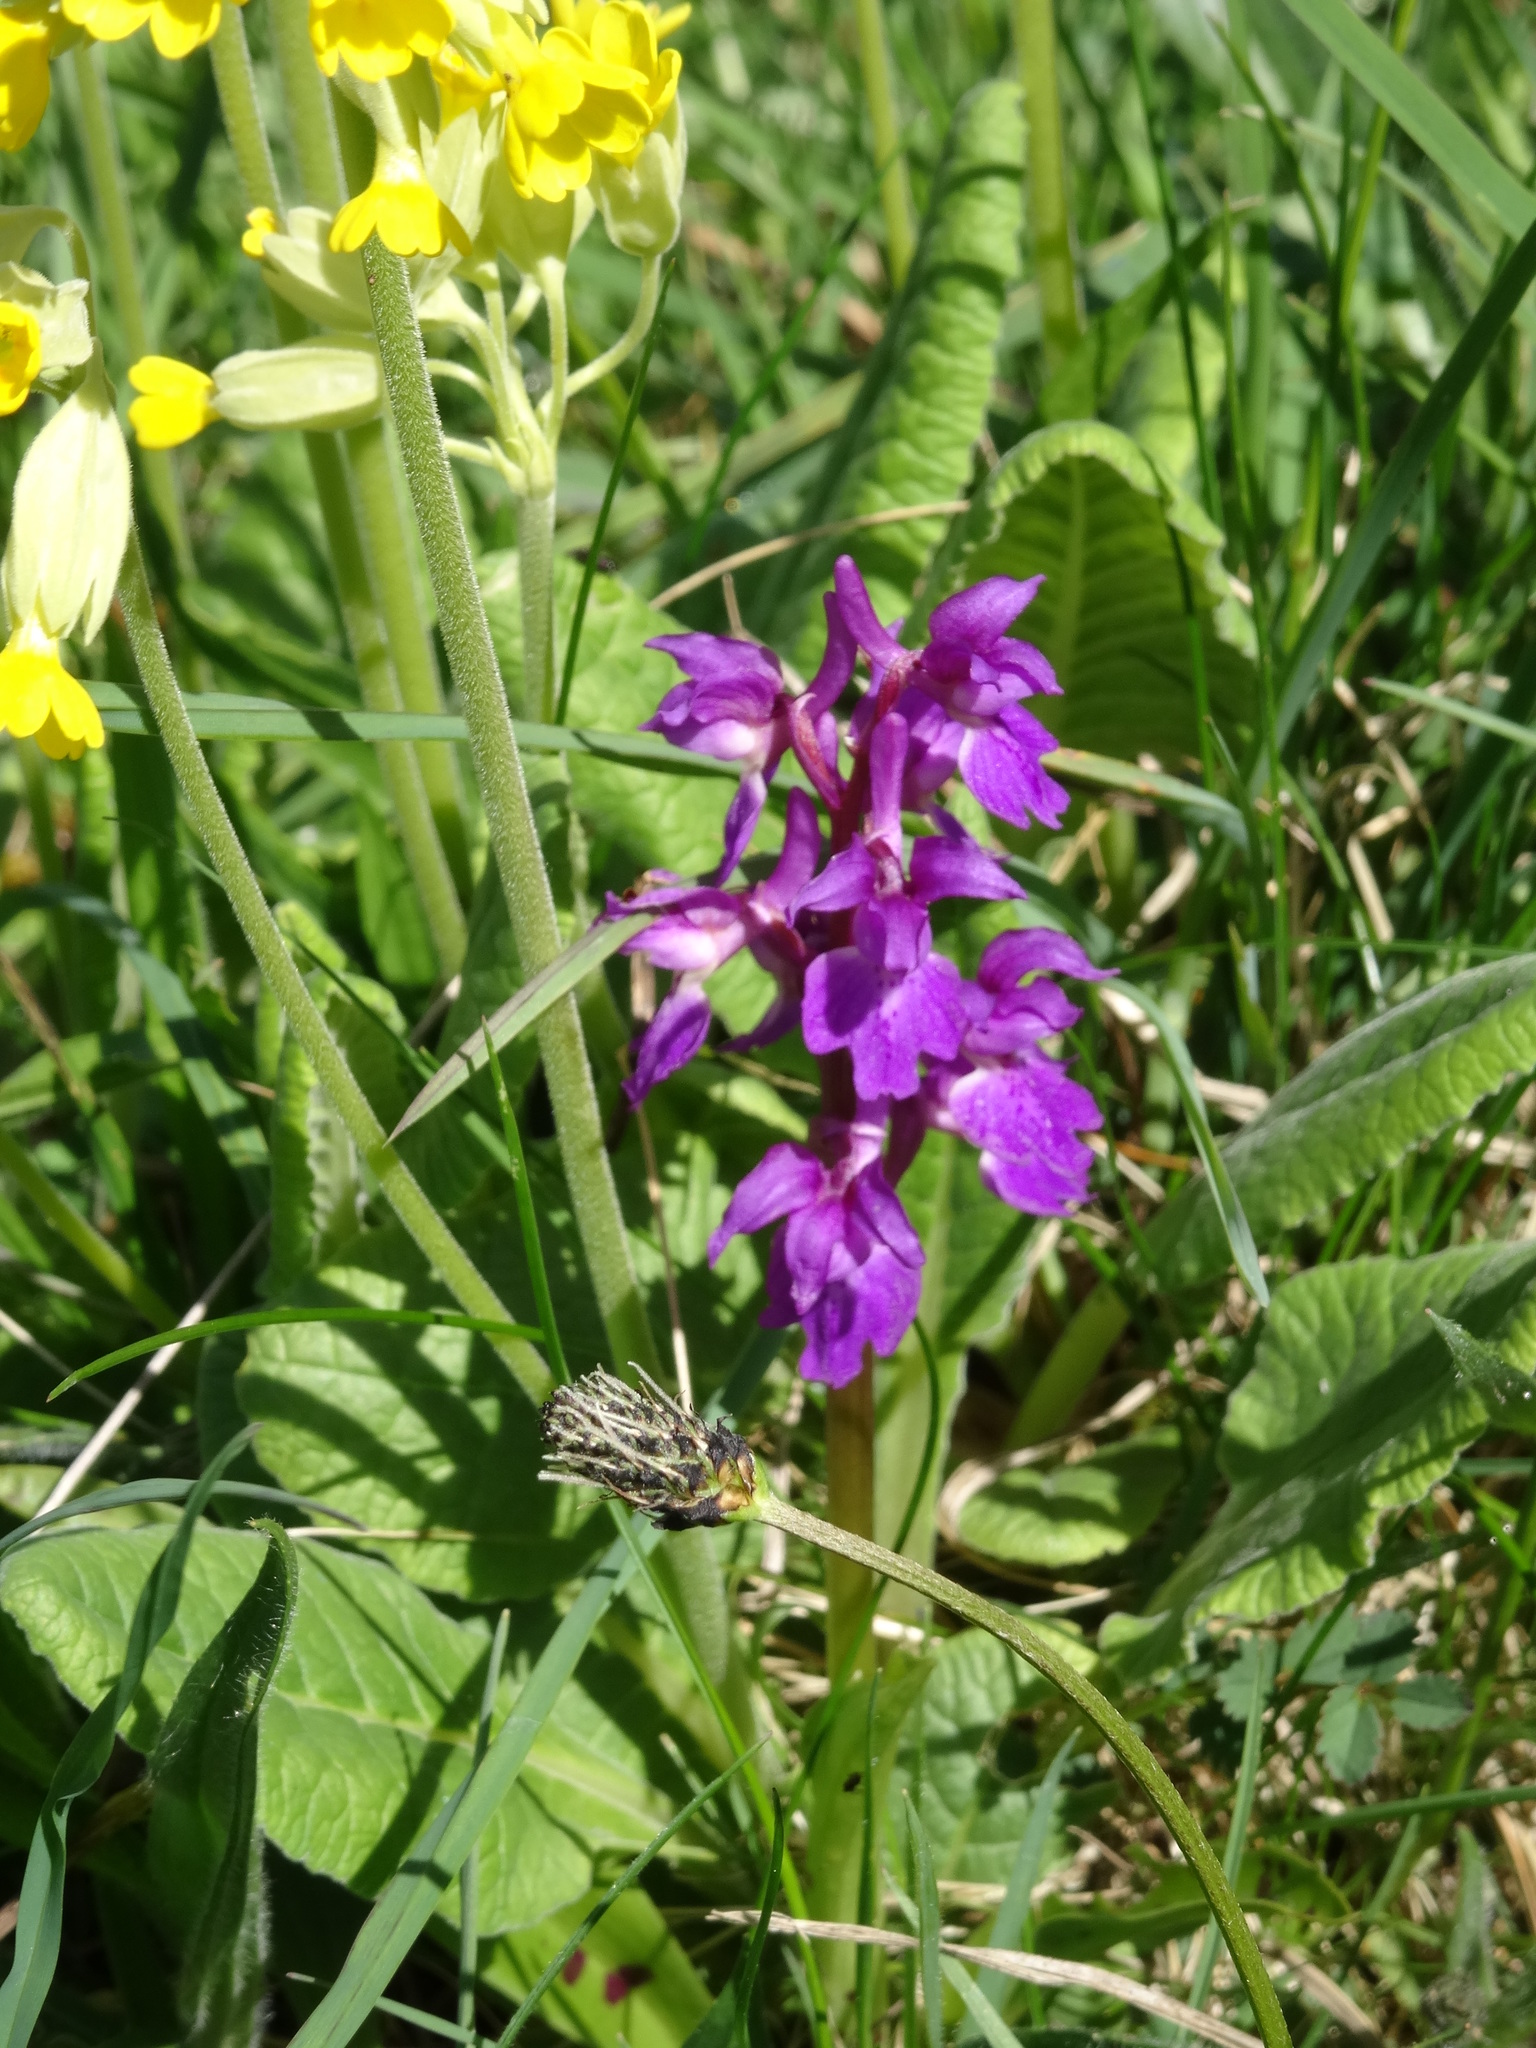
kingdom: Plantae
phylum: Tracheophyta
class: Liliopsida
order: Asparagales
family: Orchidaceae
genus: Orchis
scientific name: Orchis mascula
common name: Early-purple orchid
